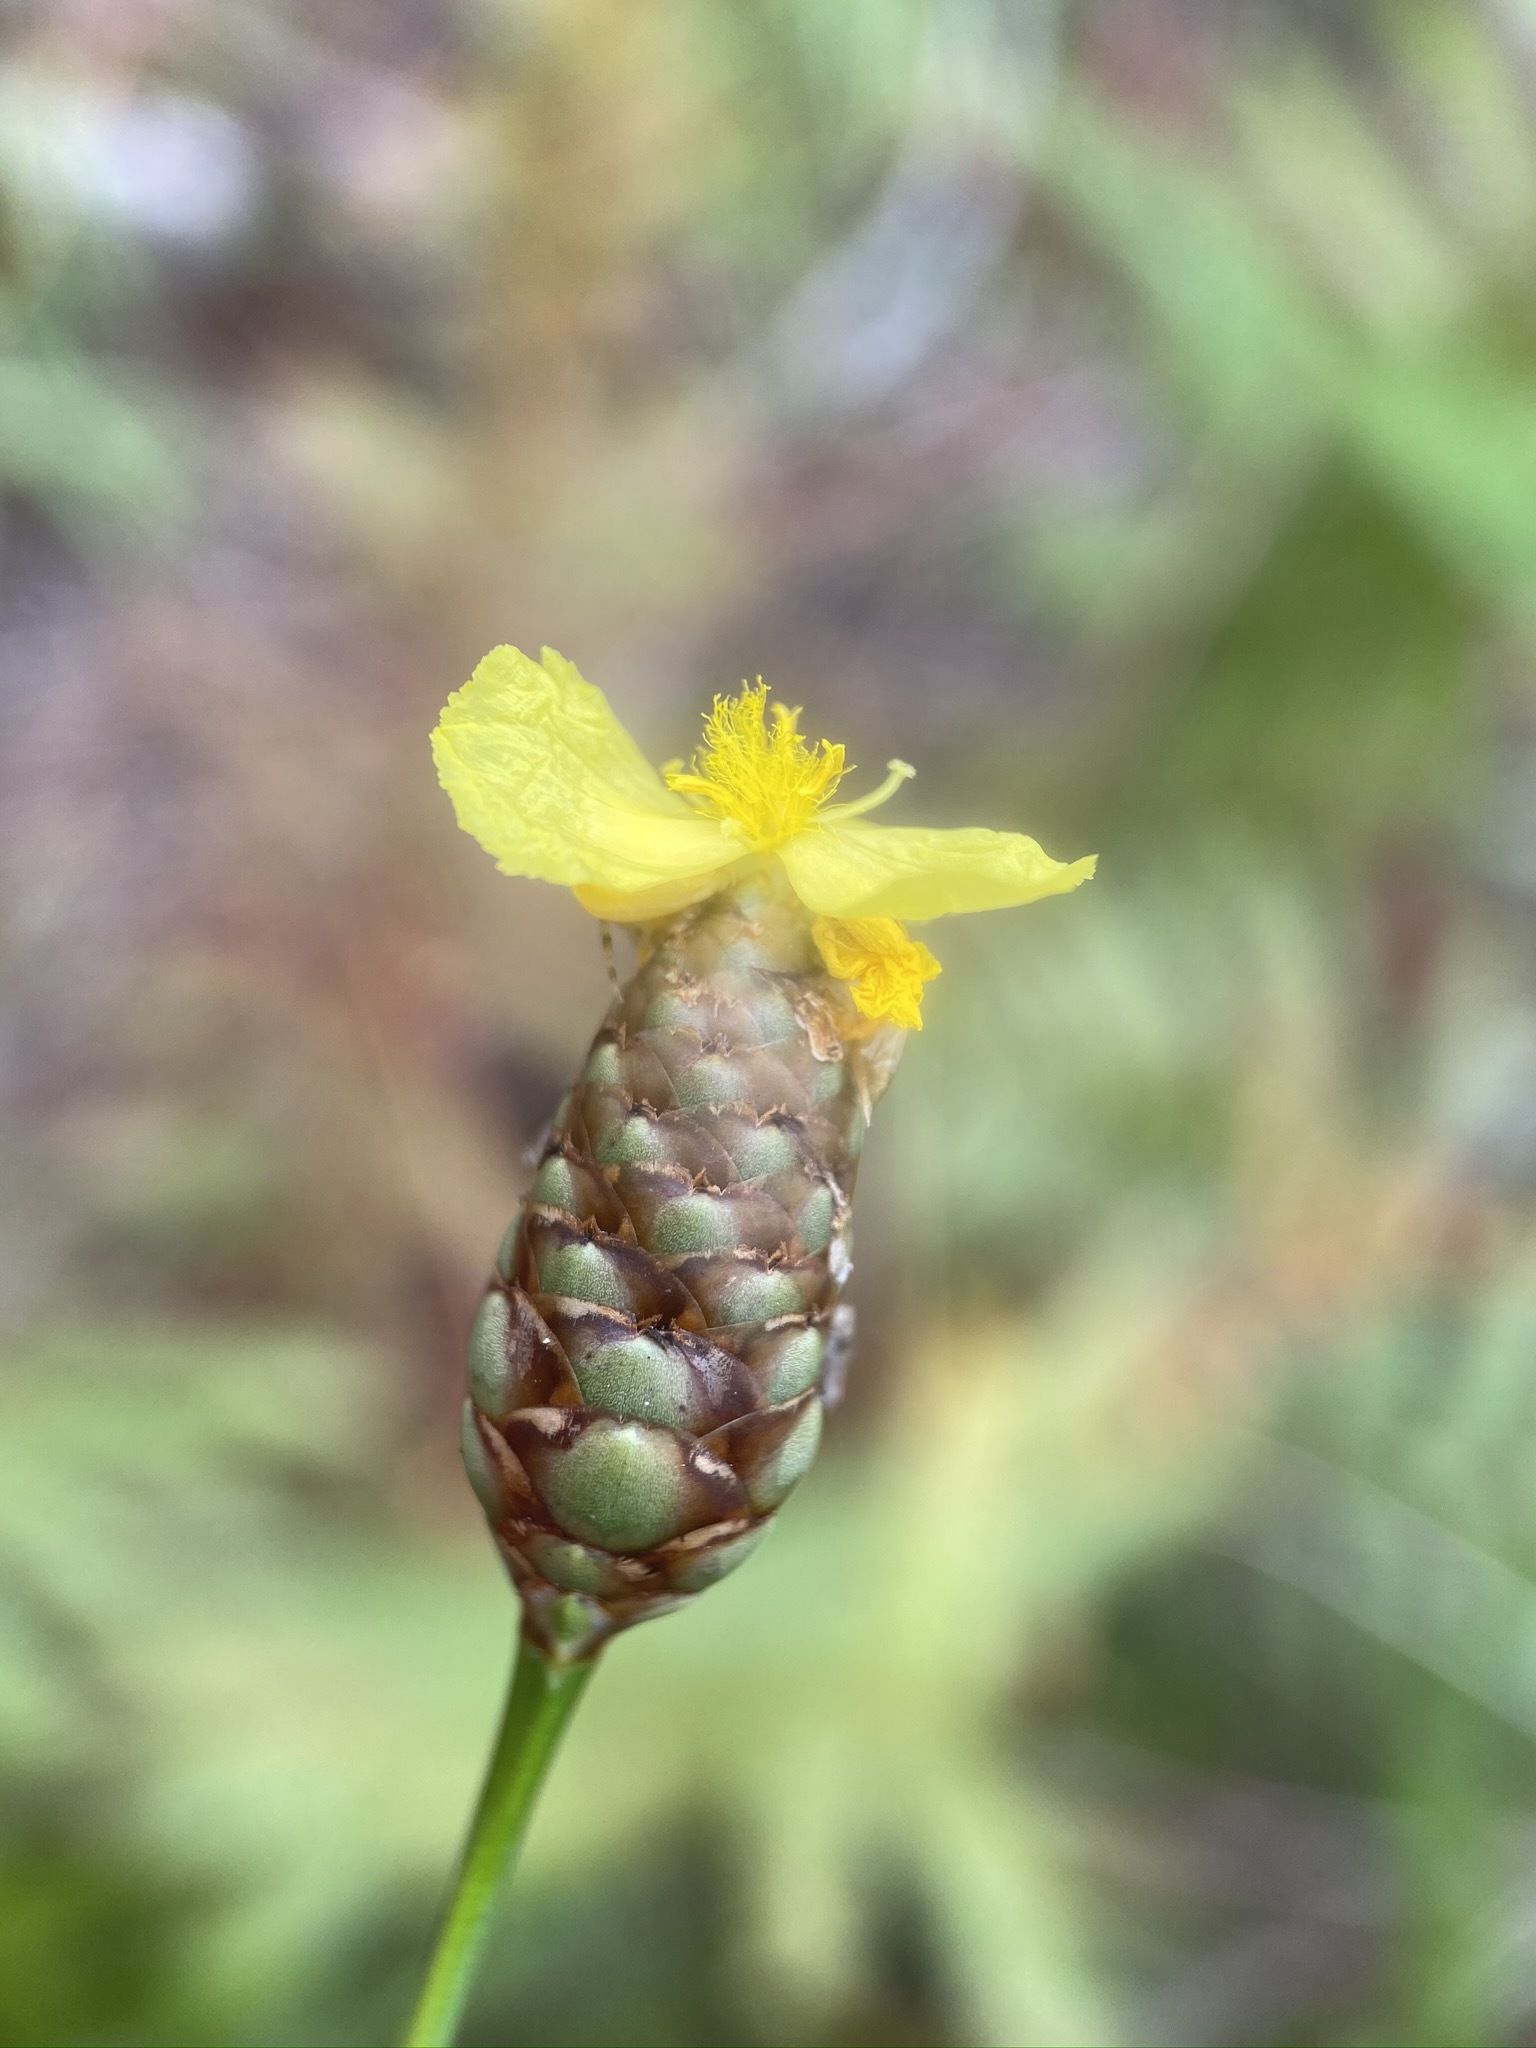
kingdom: Plantae
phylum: Tracheophyta
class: Liliopsida
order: Poales
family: Xyridaceae
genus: Xyris
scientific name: Xyris ambigua
